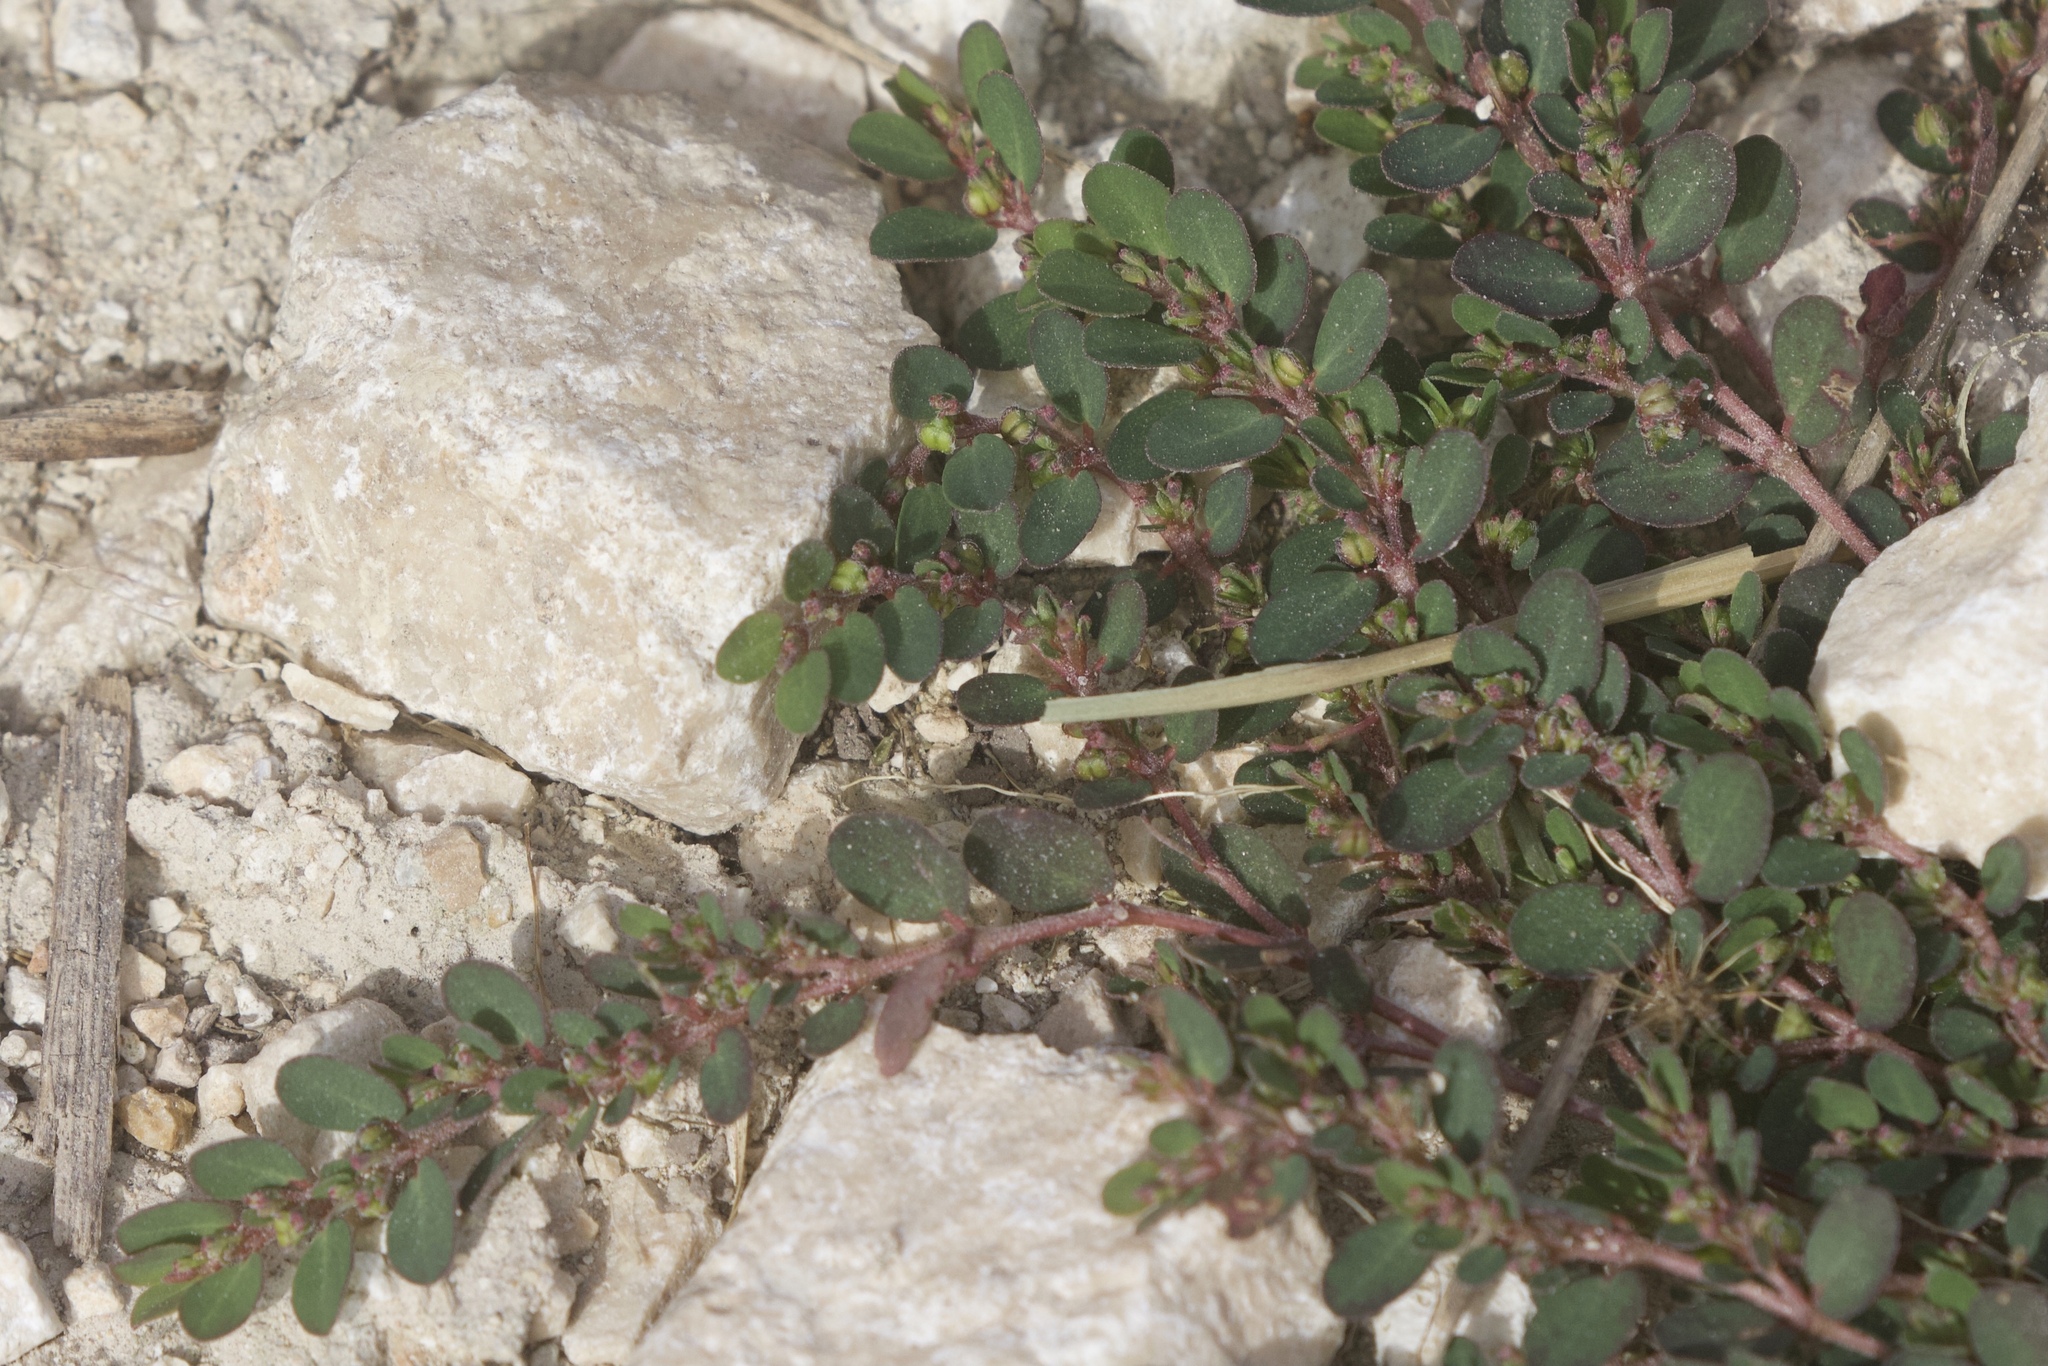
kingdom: Plantae
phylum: Tracheophyta
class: Magnoliopsida
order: Malpighiales
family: Euphorbiaceae
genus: Euphorbia
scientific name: Euphorbia prostrata
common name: Prostrate sandmat
